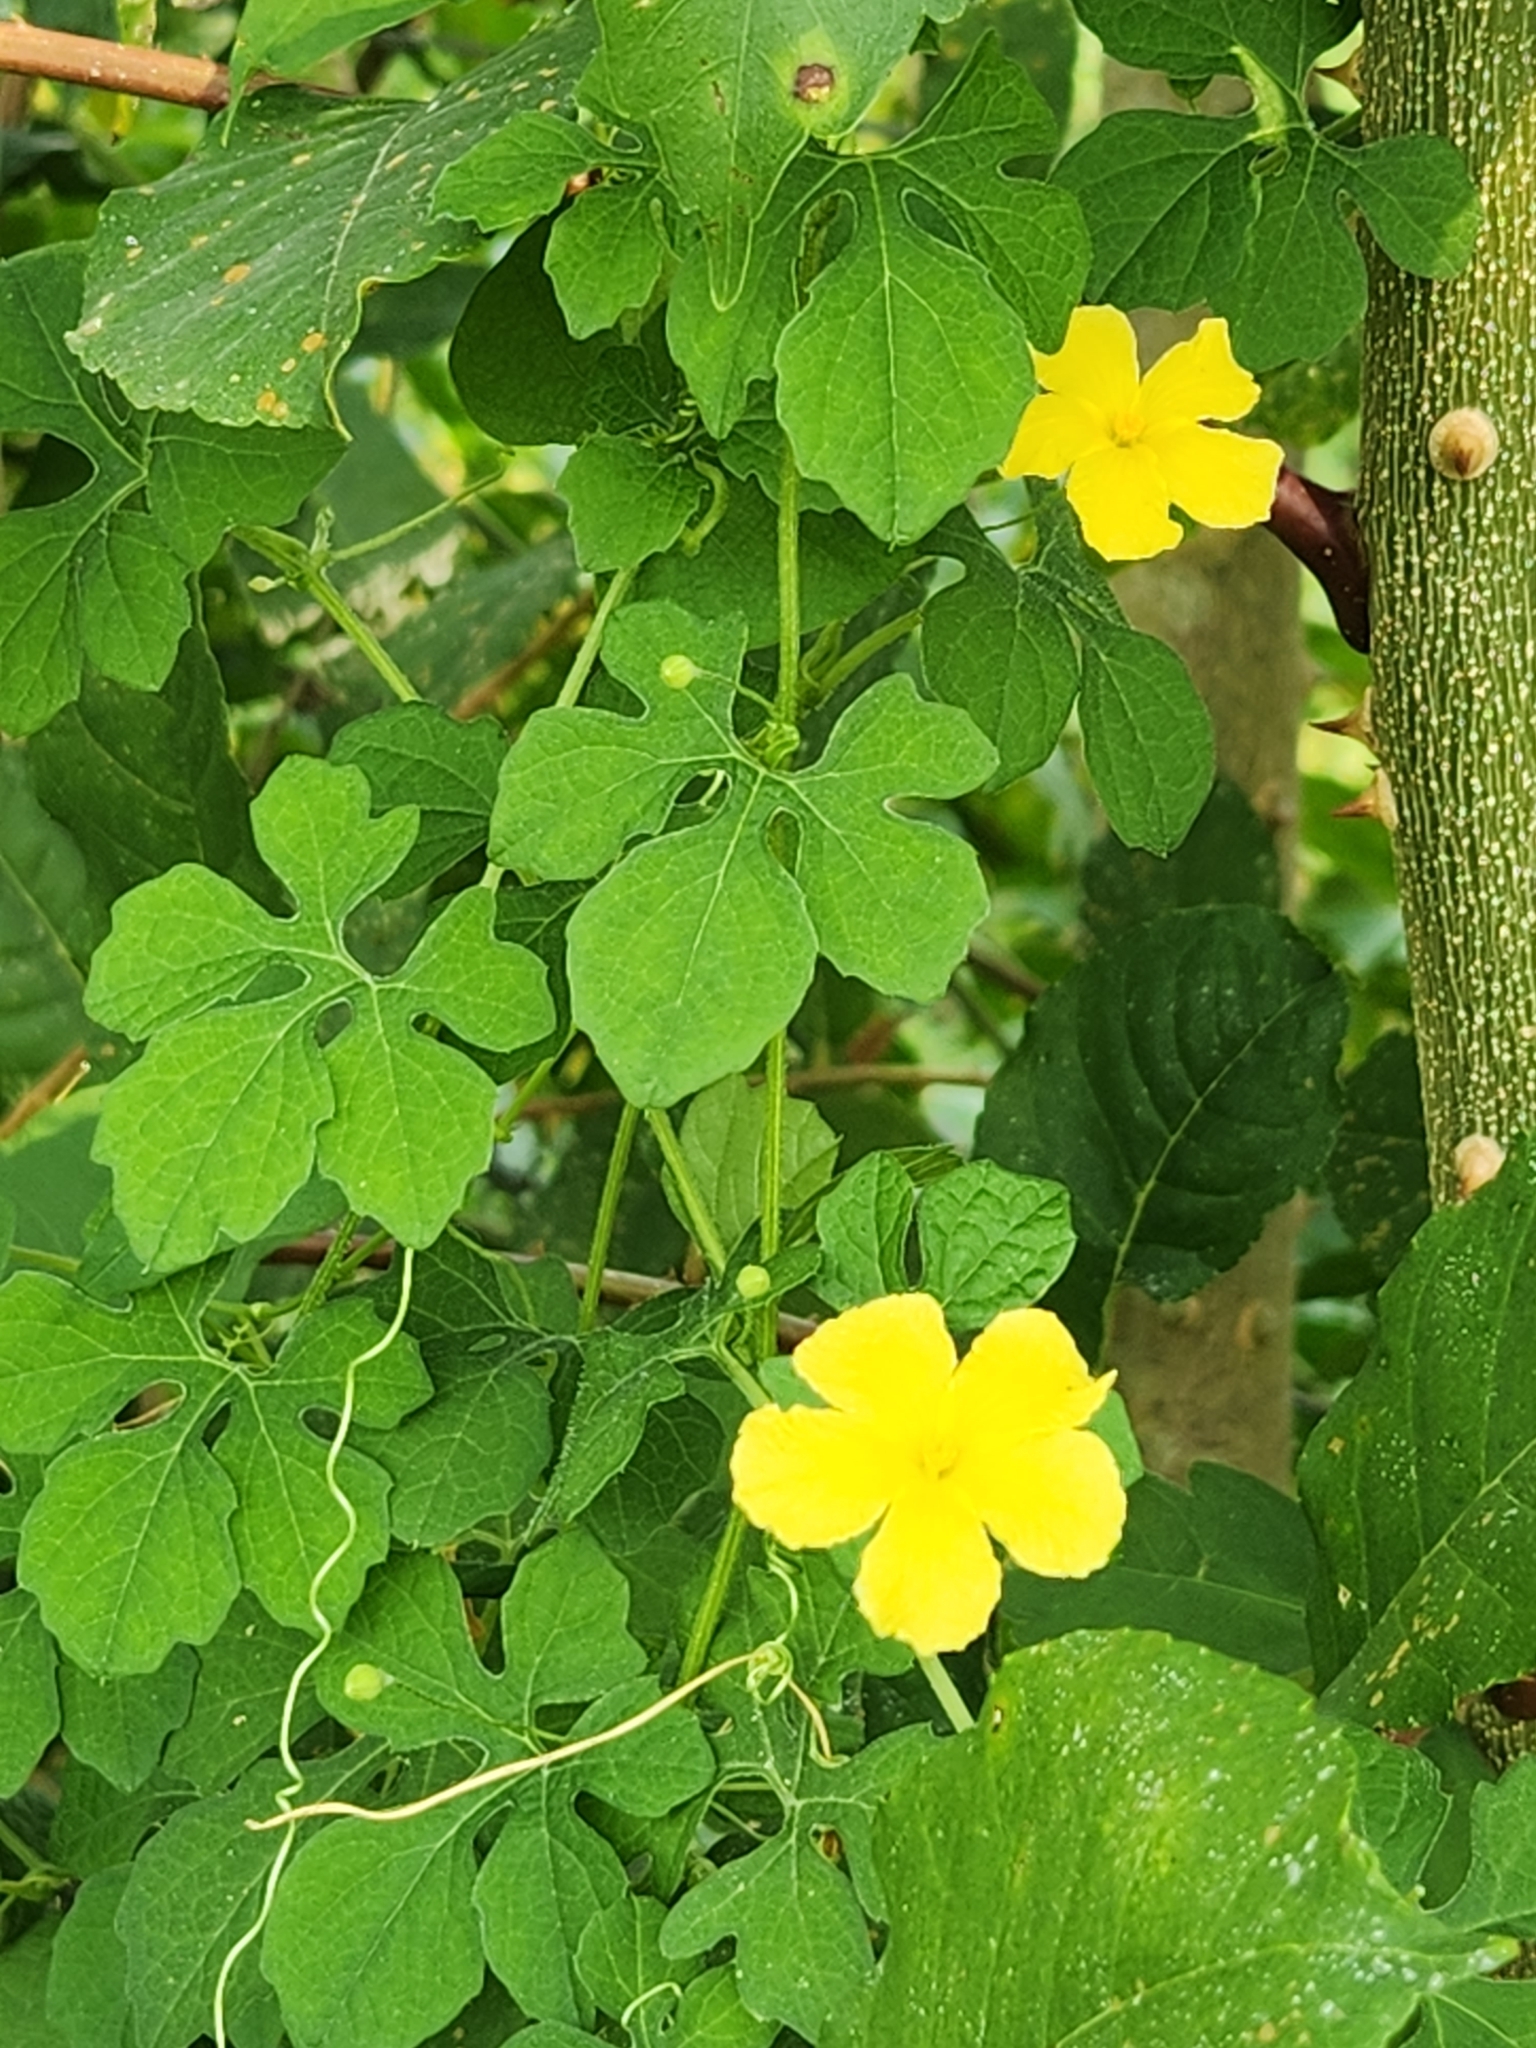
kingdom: Plantae
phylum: Tracheophyta
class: Magnoliopsida
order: Cucurbitales
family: Cucurbitaceae
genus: Momordica
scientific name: Momordica charantia
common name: Balsampear
